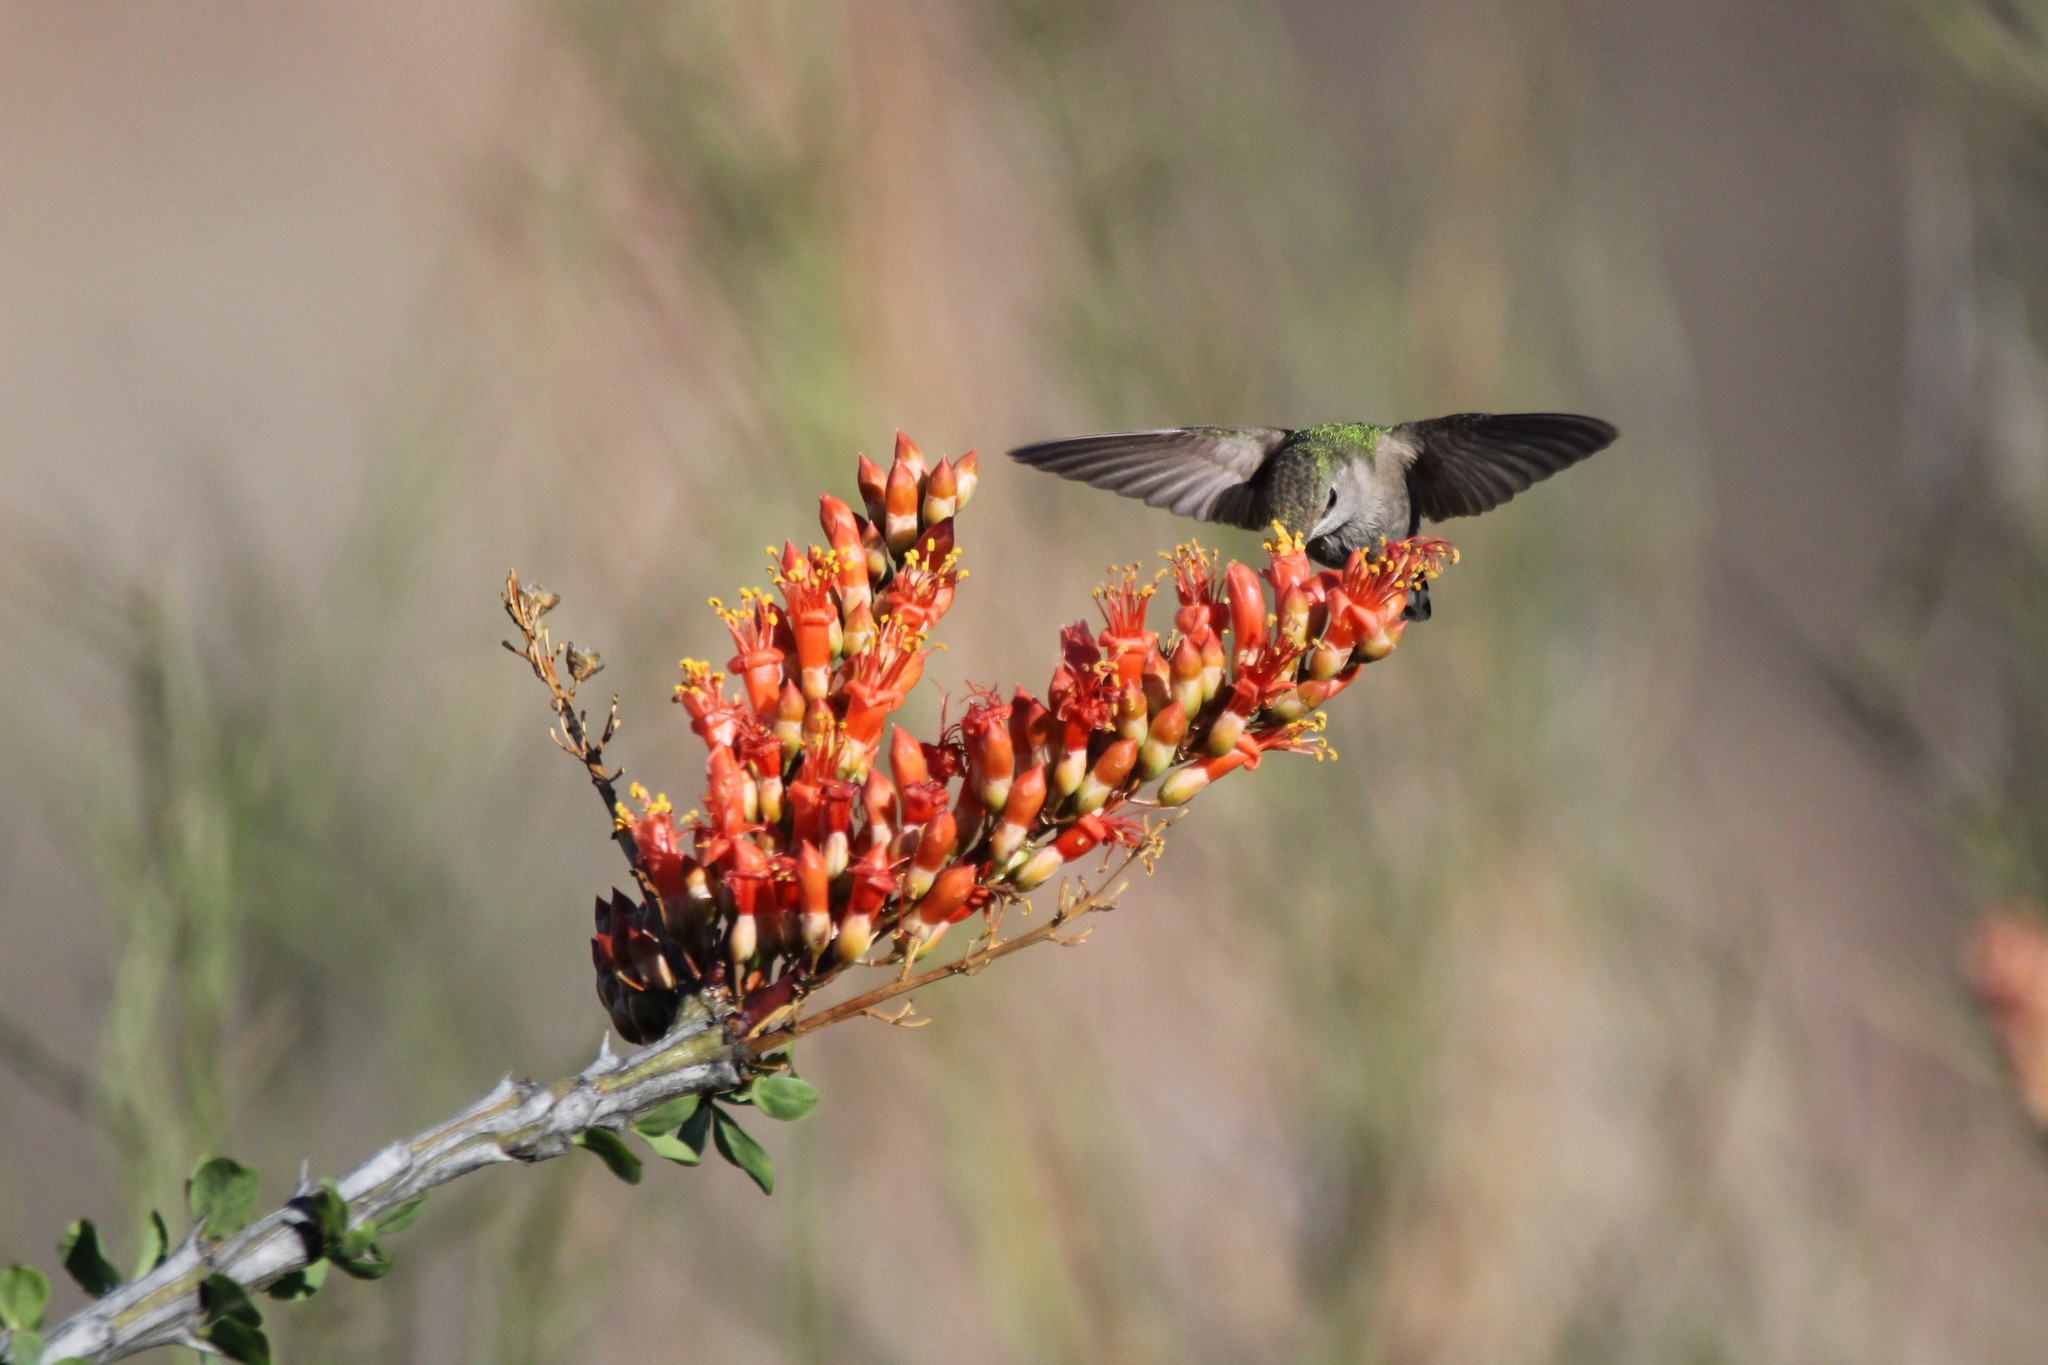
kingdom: Animalia
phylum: Chordata
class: Aves
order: Apodiformes
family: Trochilidae
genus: Calypte
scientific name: Calypte costae
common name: Costa's hummingbird
